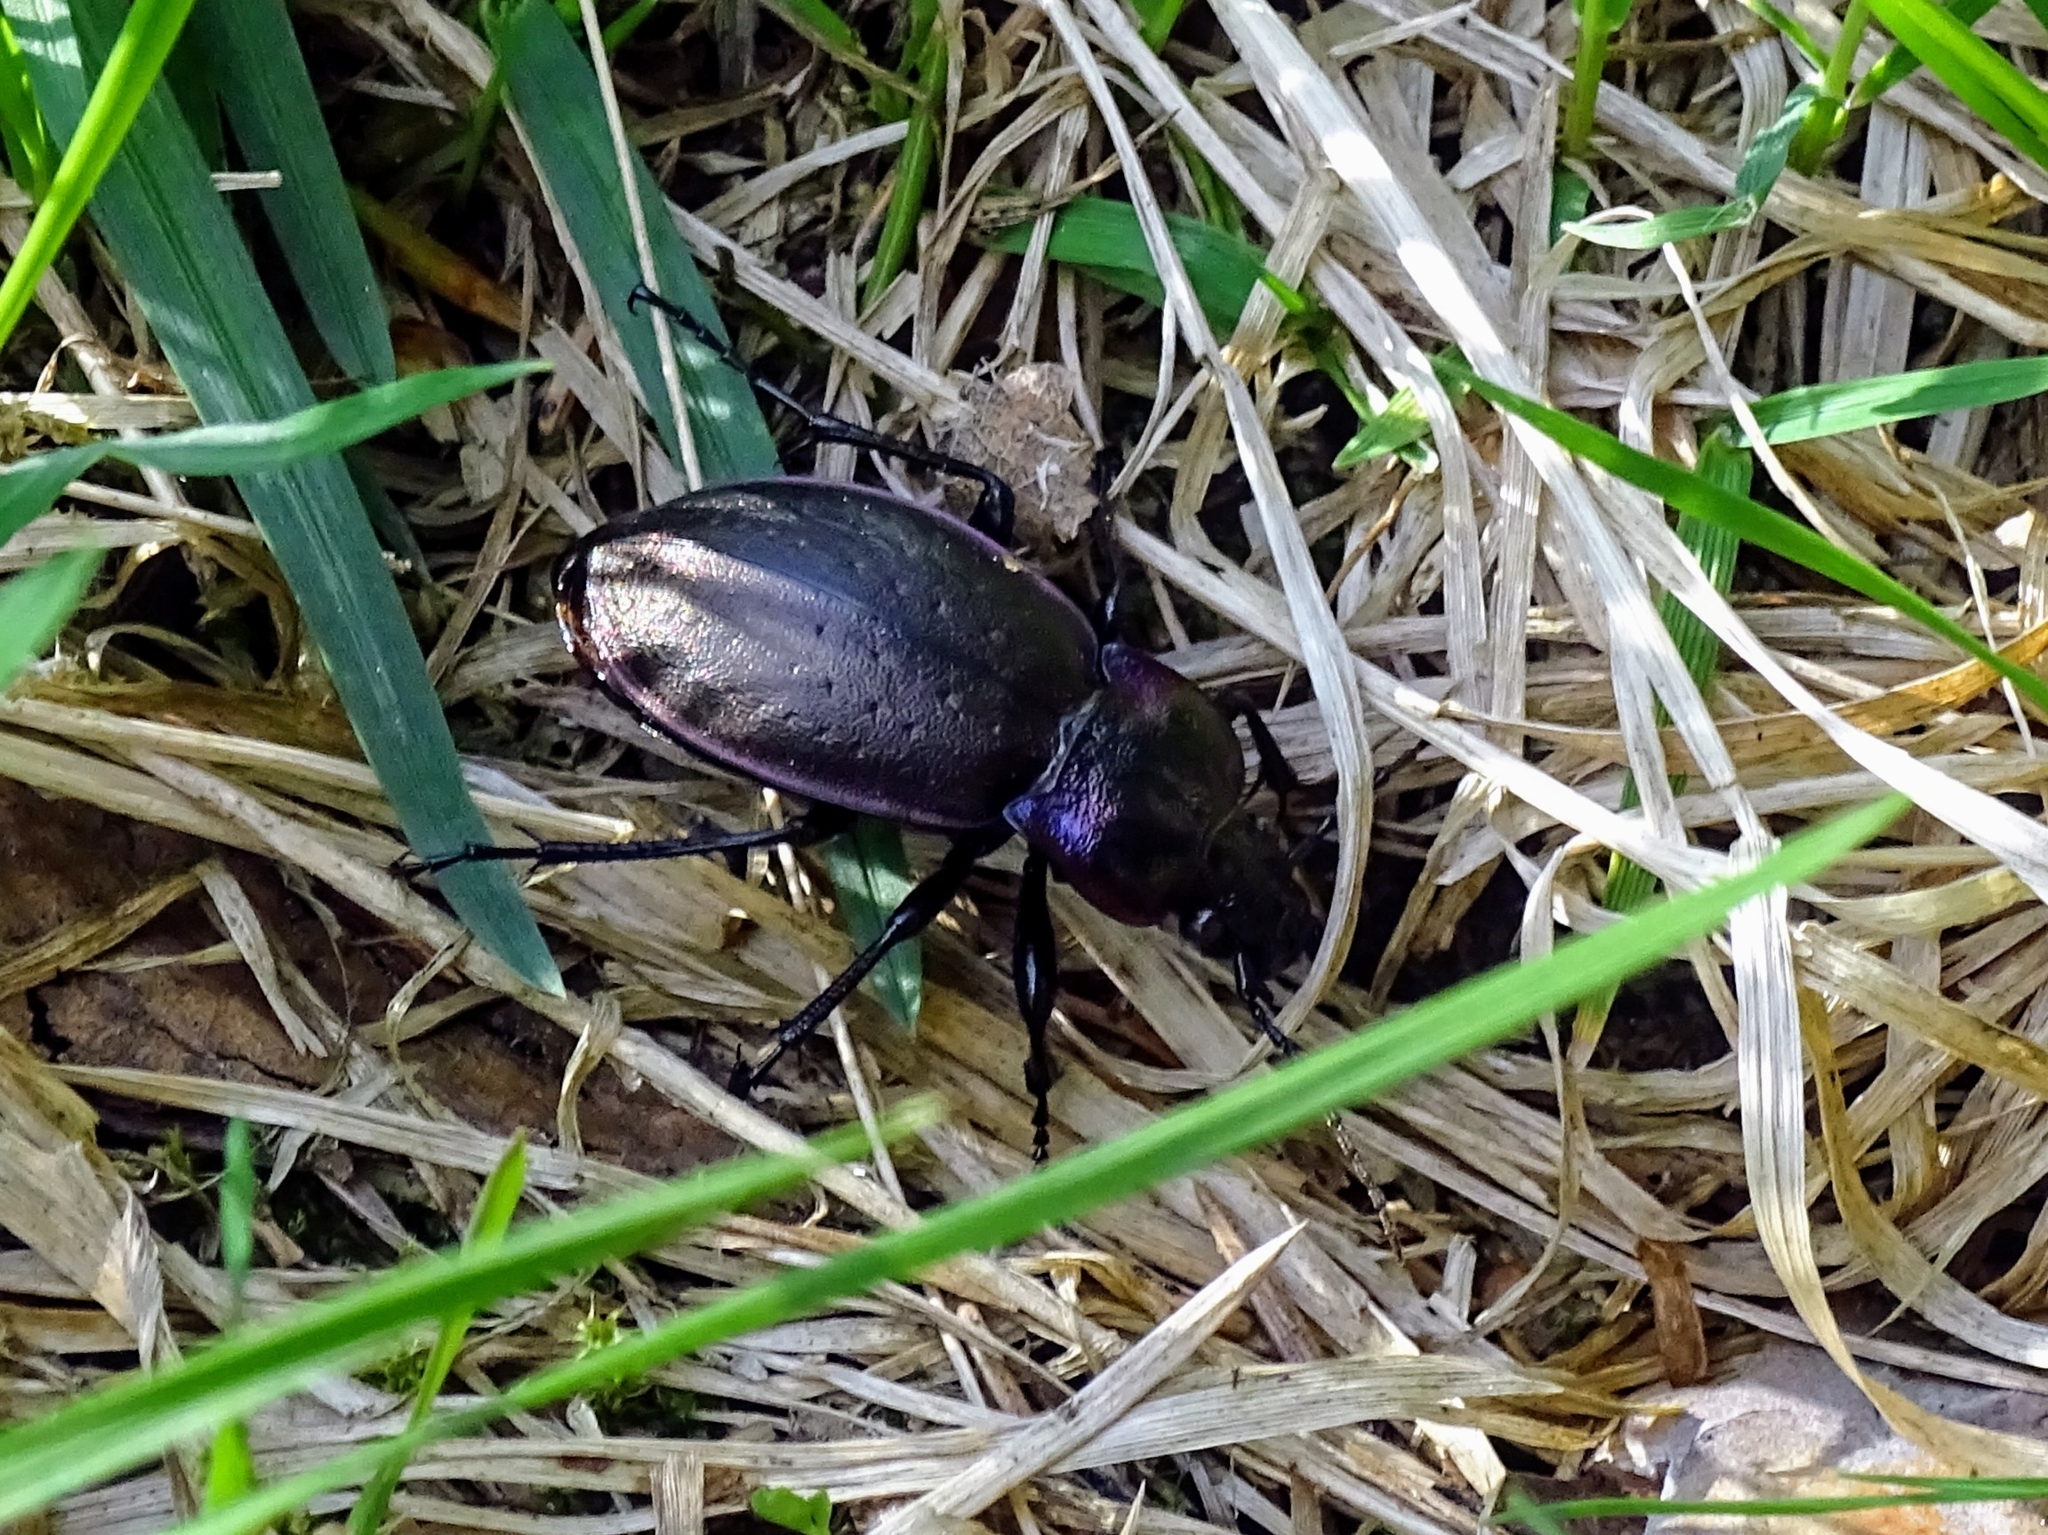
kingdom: Animalia
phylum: Arthropoda
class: Insecta
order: Coleoptera
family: Carabidae
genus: Carabus
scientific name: Carabus nemoralis
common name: European ground beetle
